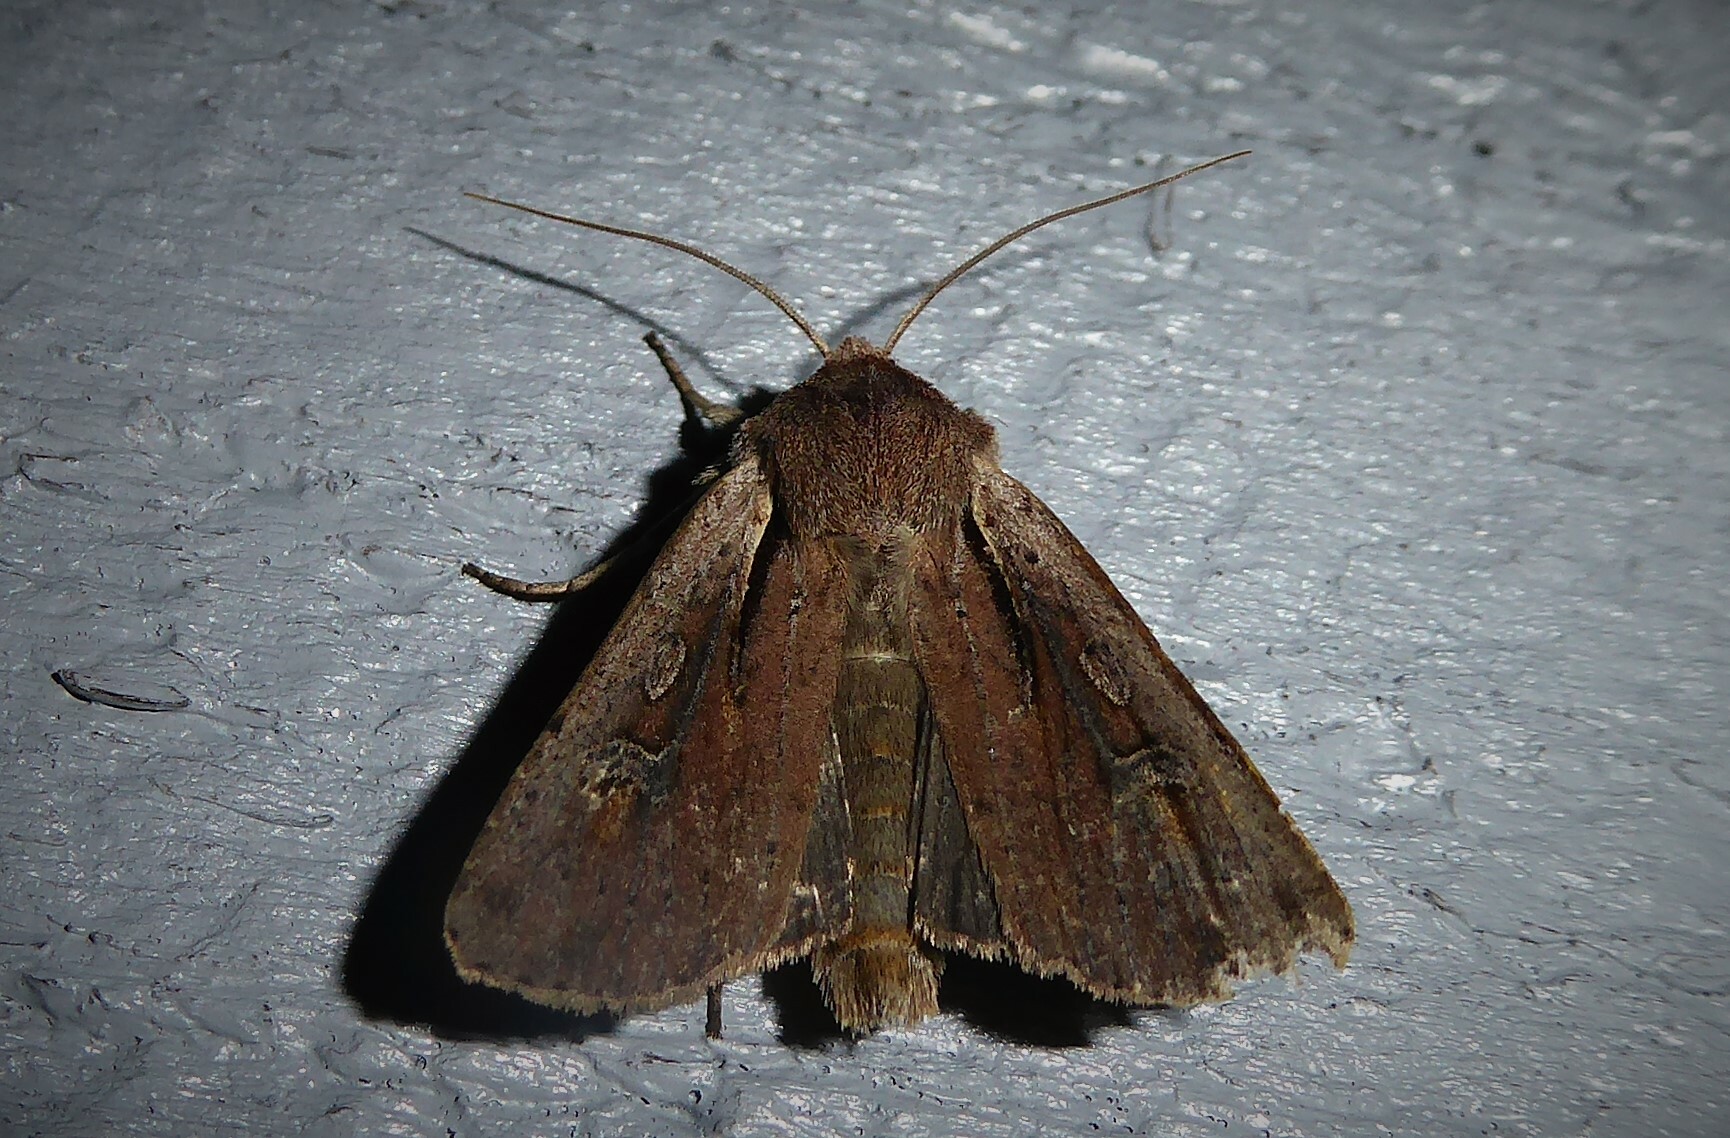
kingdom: Animalia
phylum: Arthropoda
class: Insecta
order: Lepidoptera
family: Noctuidae
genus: Ichneutica
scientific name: Ichneutica atristriga
